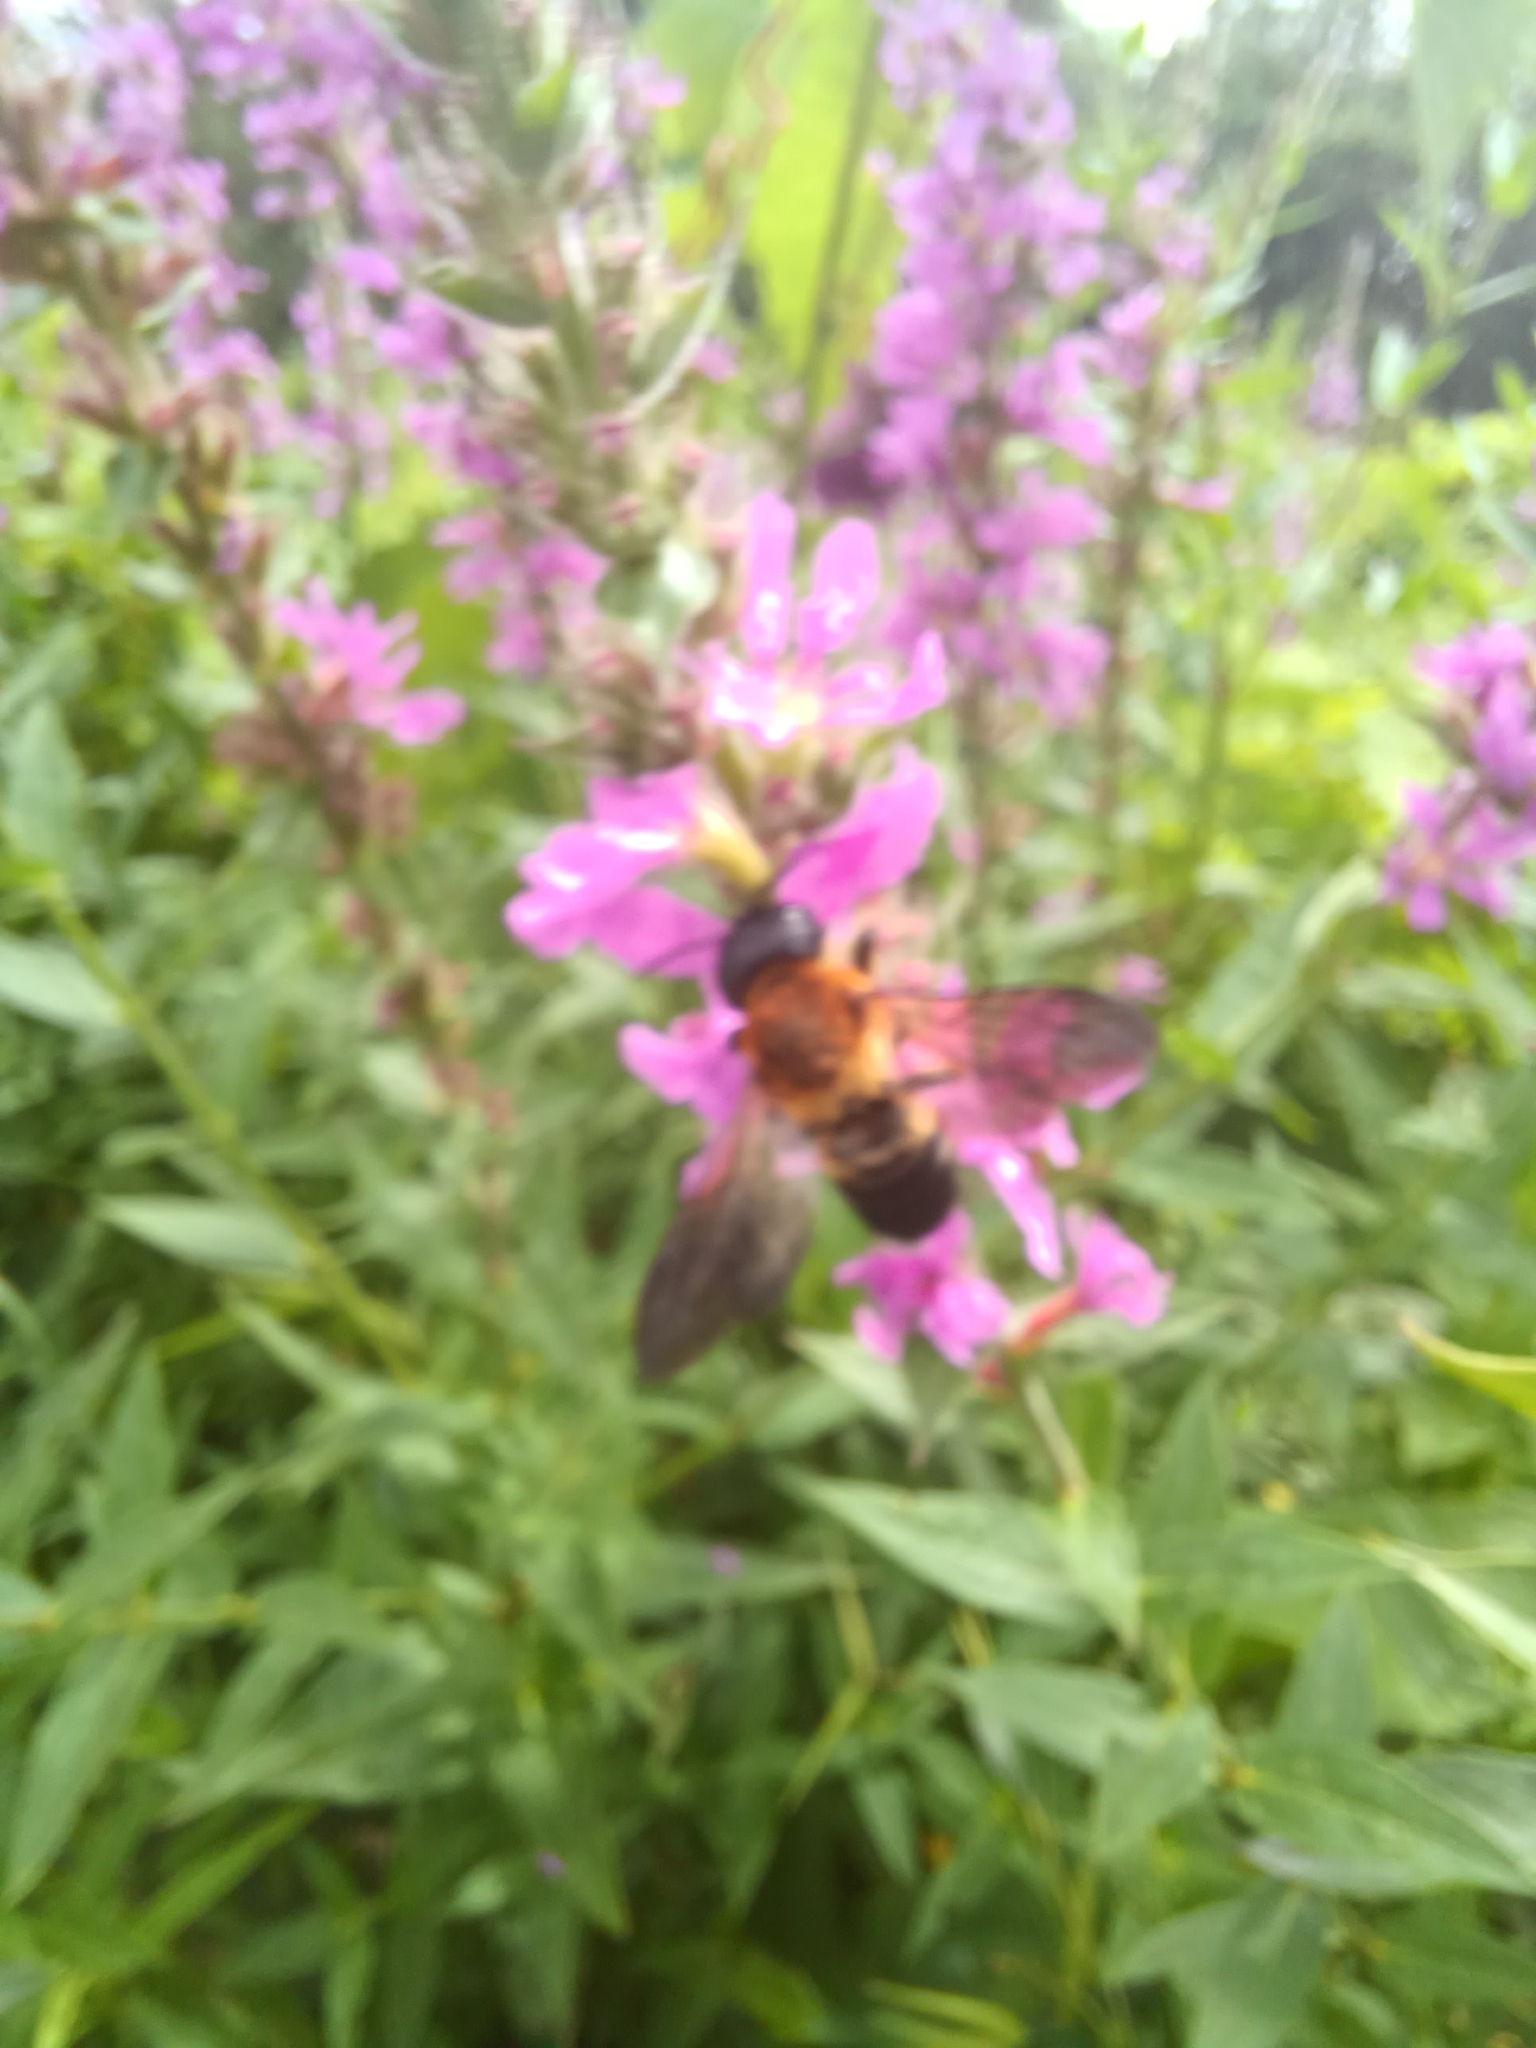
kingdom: Animalia
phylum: Arthropoda
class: Insecta
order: Hymenoptera
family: Megachilidae
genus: Megachile
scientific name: Megachile sculpturalis
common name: Sculptured resin bee
